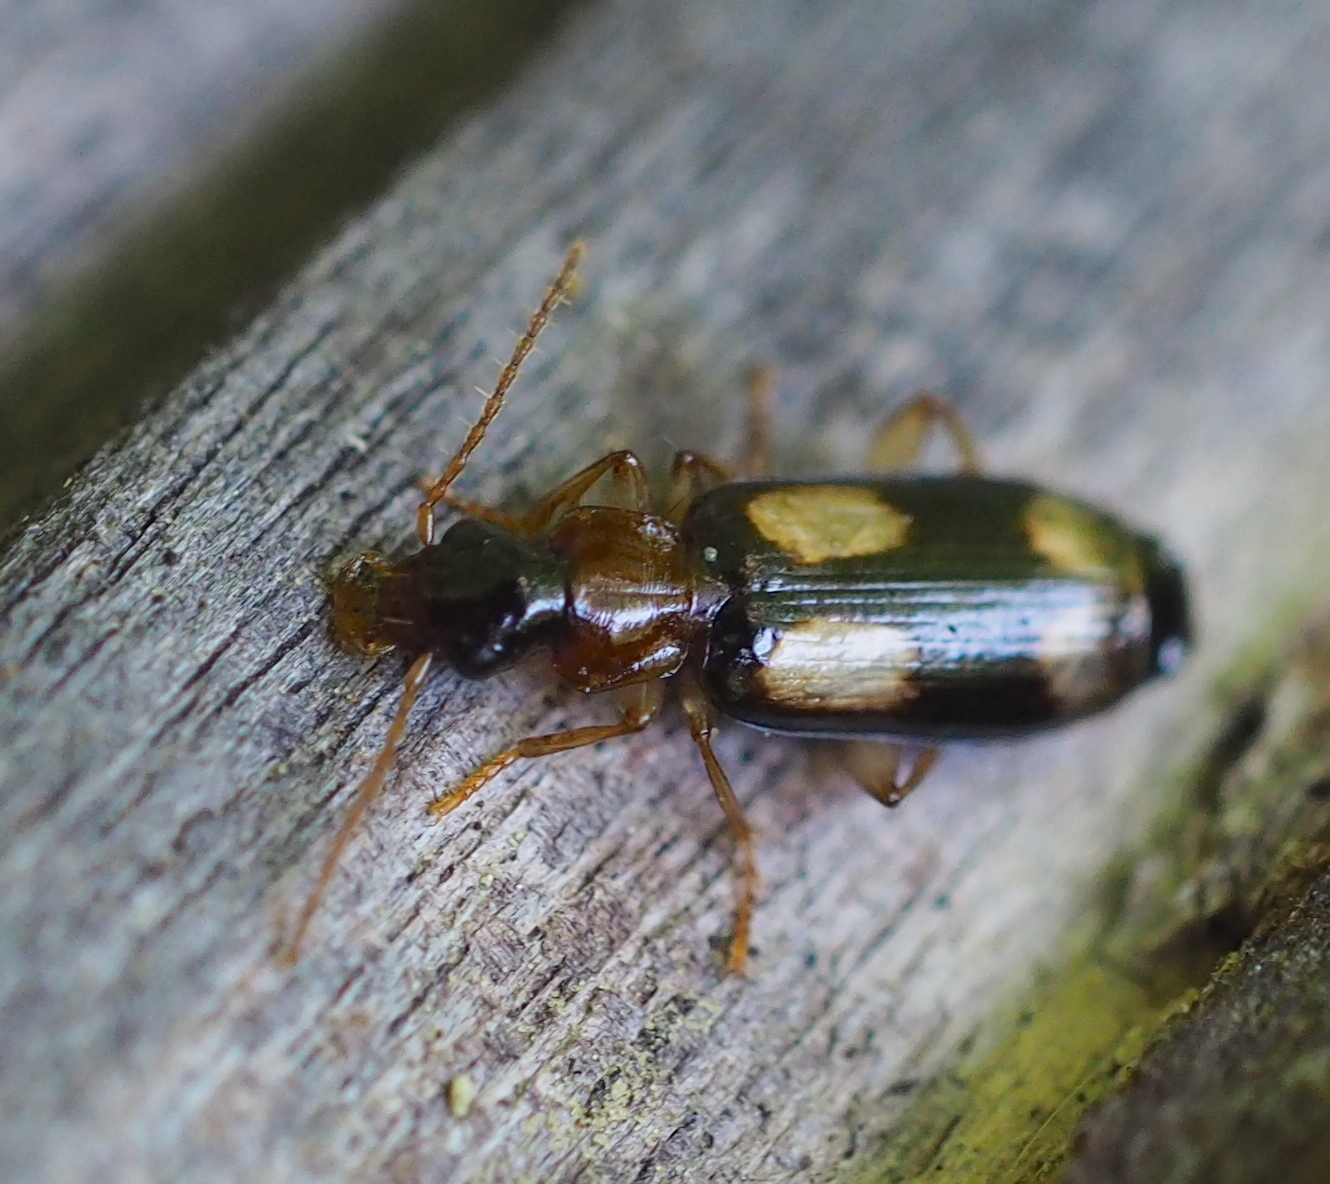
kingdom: Animalia
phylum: Arthropoda
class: Insecta
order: Coleoptera
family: Carabidae
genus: Dromius
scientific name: Dromius quadrimaculatus
